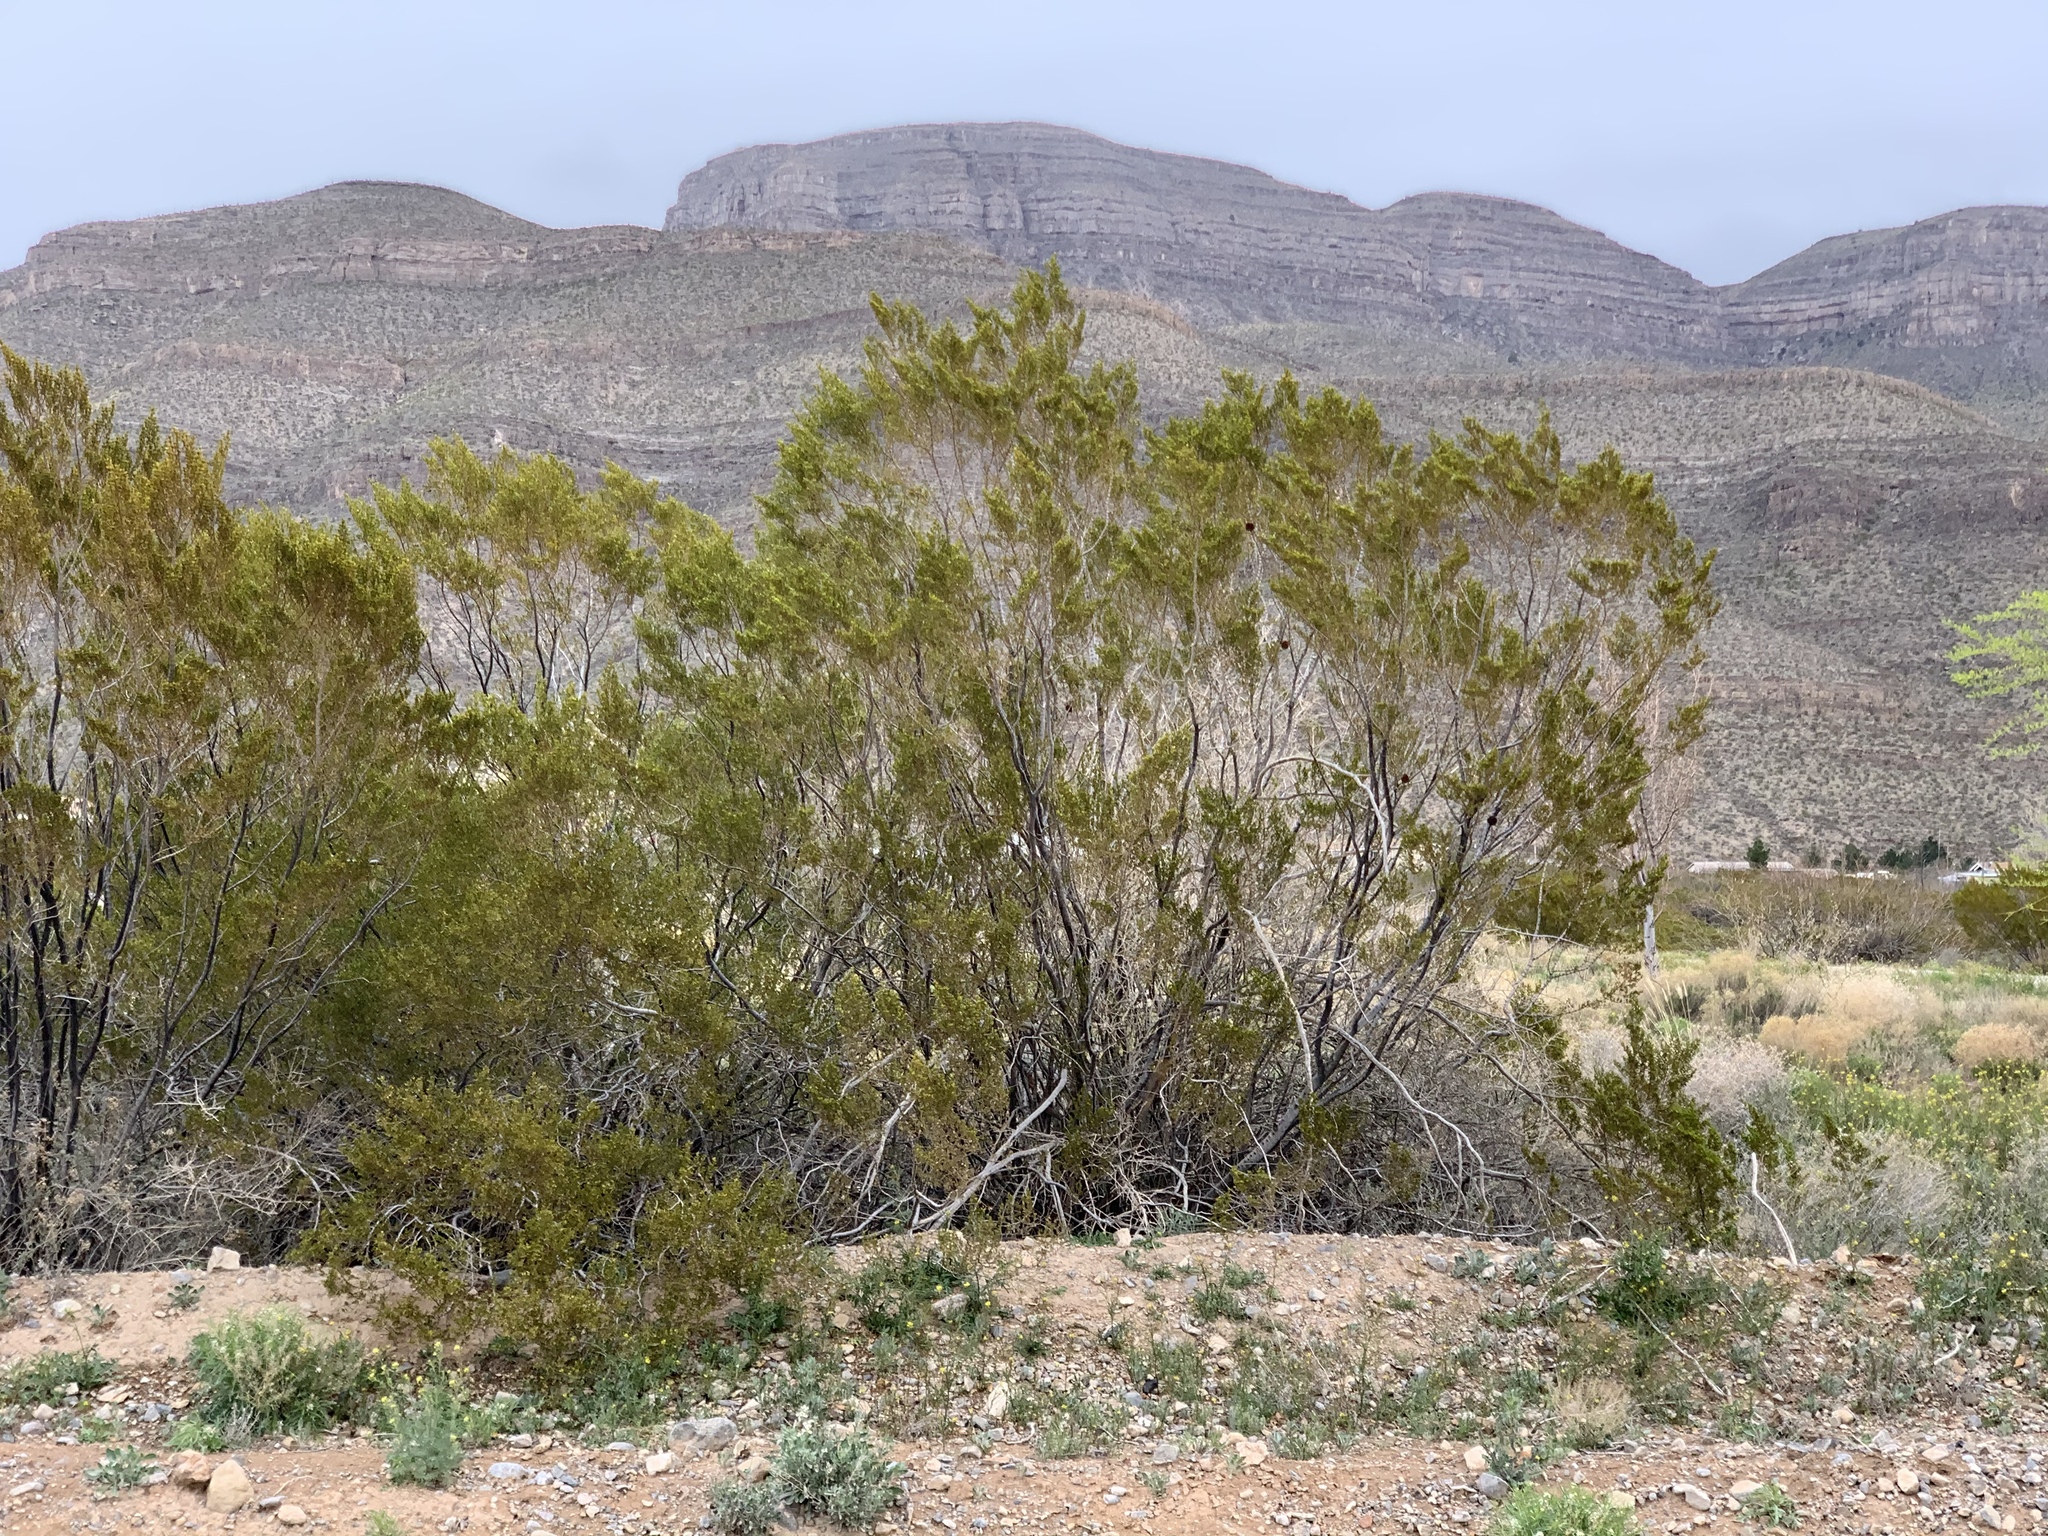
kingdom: Plantae
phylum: Tracheophyta
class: Magnoliopsida
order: Zygophyllales
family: Zygophyllaceae
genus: Larrea
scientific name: Larrea tridentata
